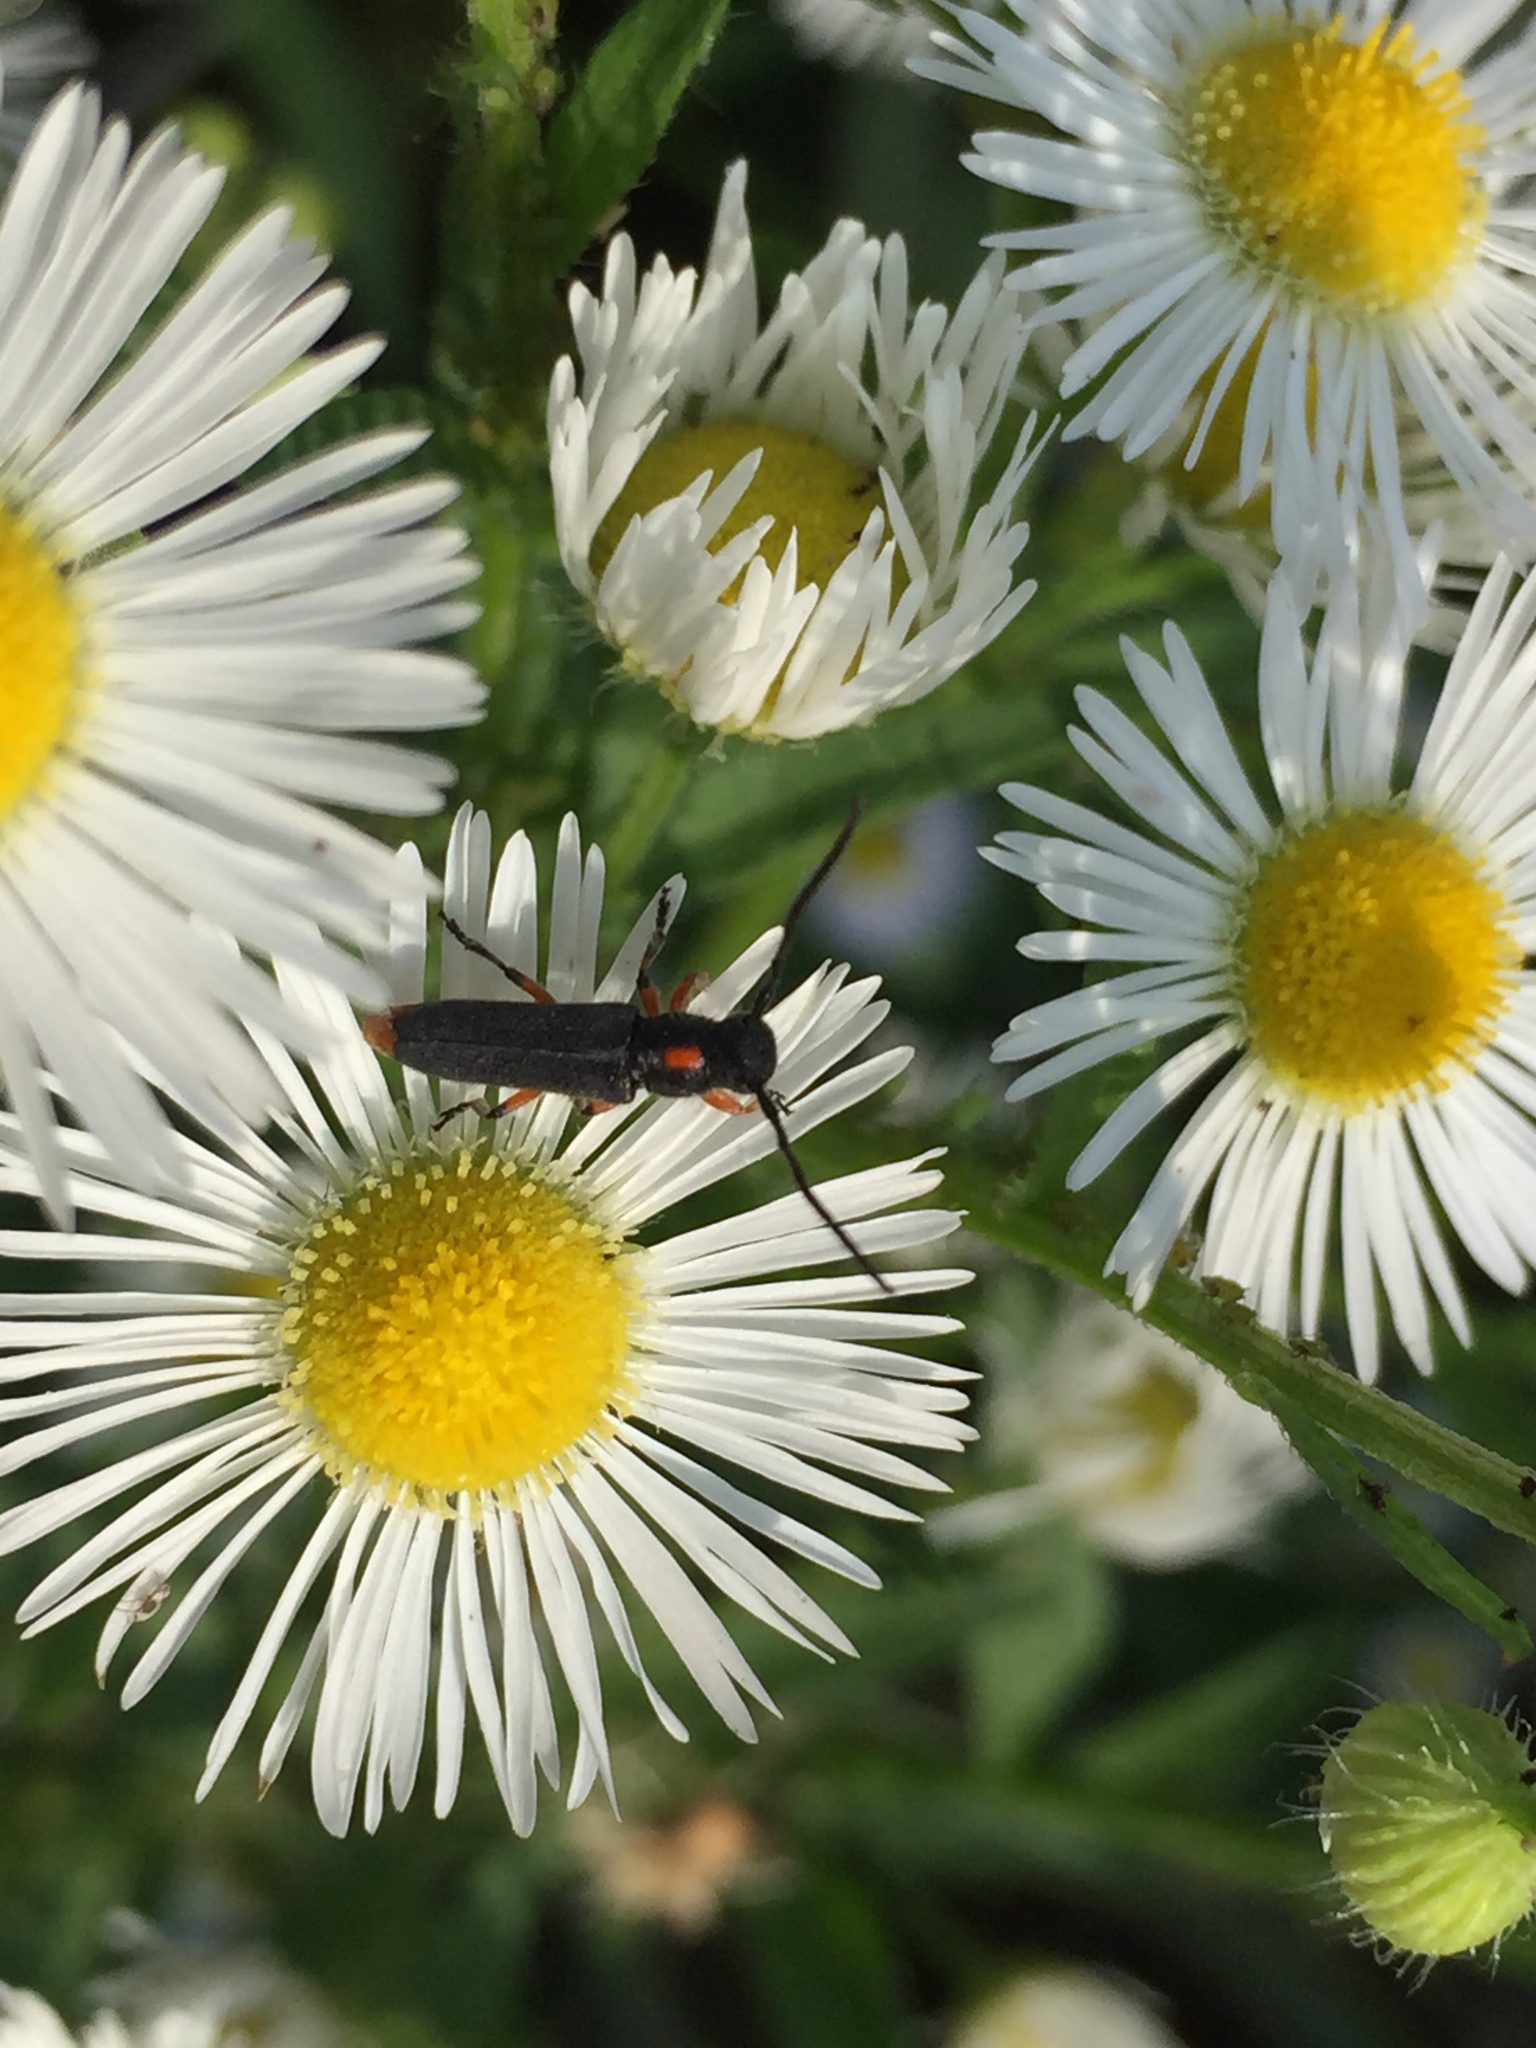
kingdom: Animalia
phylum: Arthropoda
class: Insecta
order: Coleoptera
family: Cerambycidae
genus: Phytoecia
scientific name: Phytoecia rufiventris
